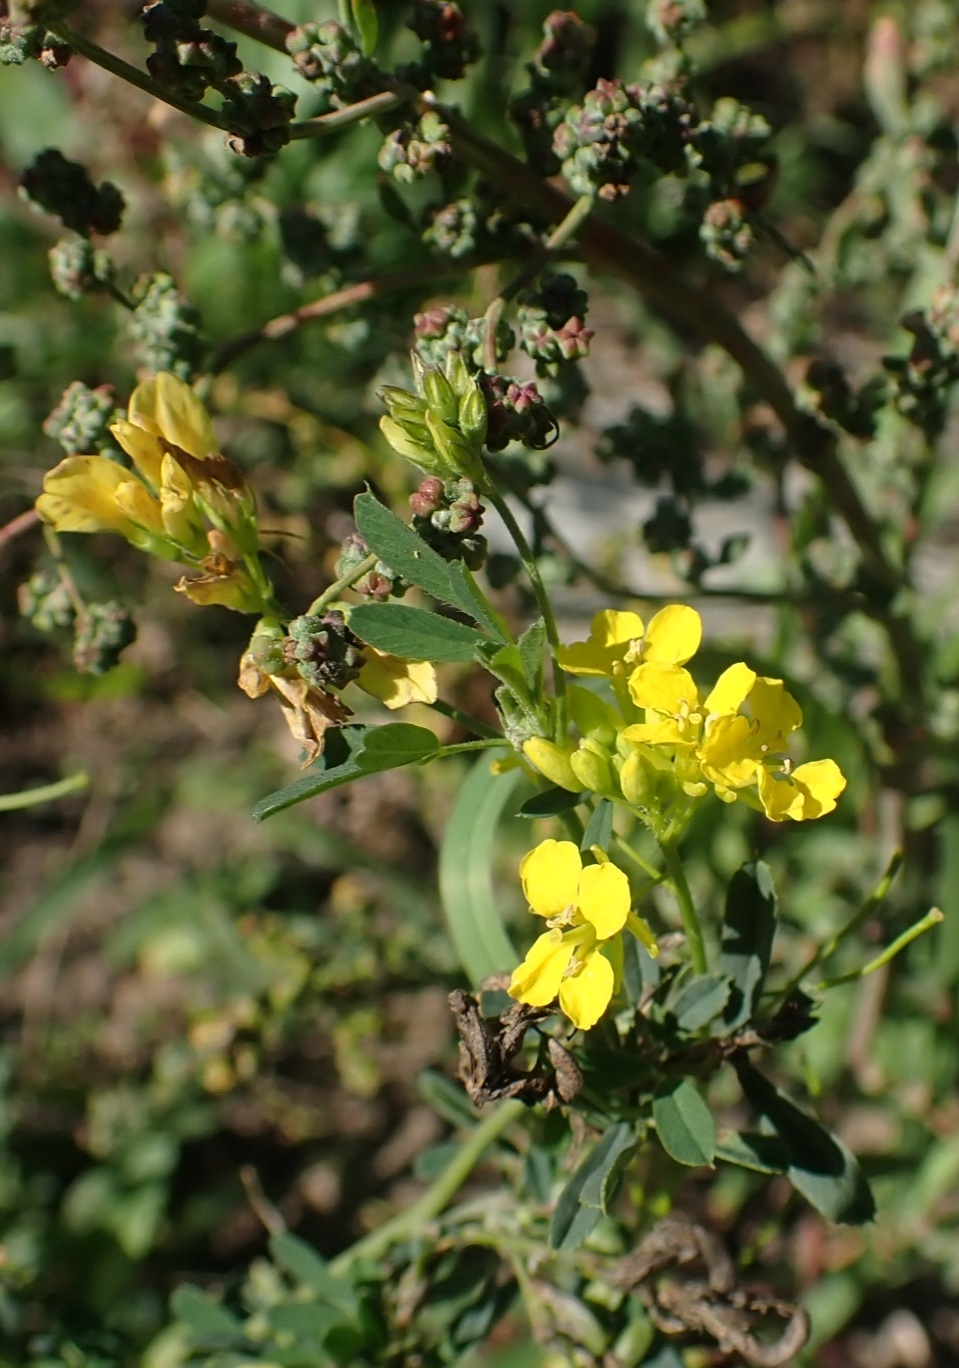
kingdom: Plantae
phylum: Tracheophyta
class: Magnoliopsida
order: Brassicales
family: Brassicaceae
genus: Sisymbrium
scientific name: Sisymbrium loeselii
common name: False london-rocket
